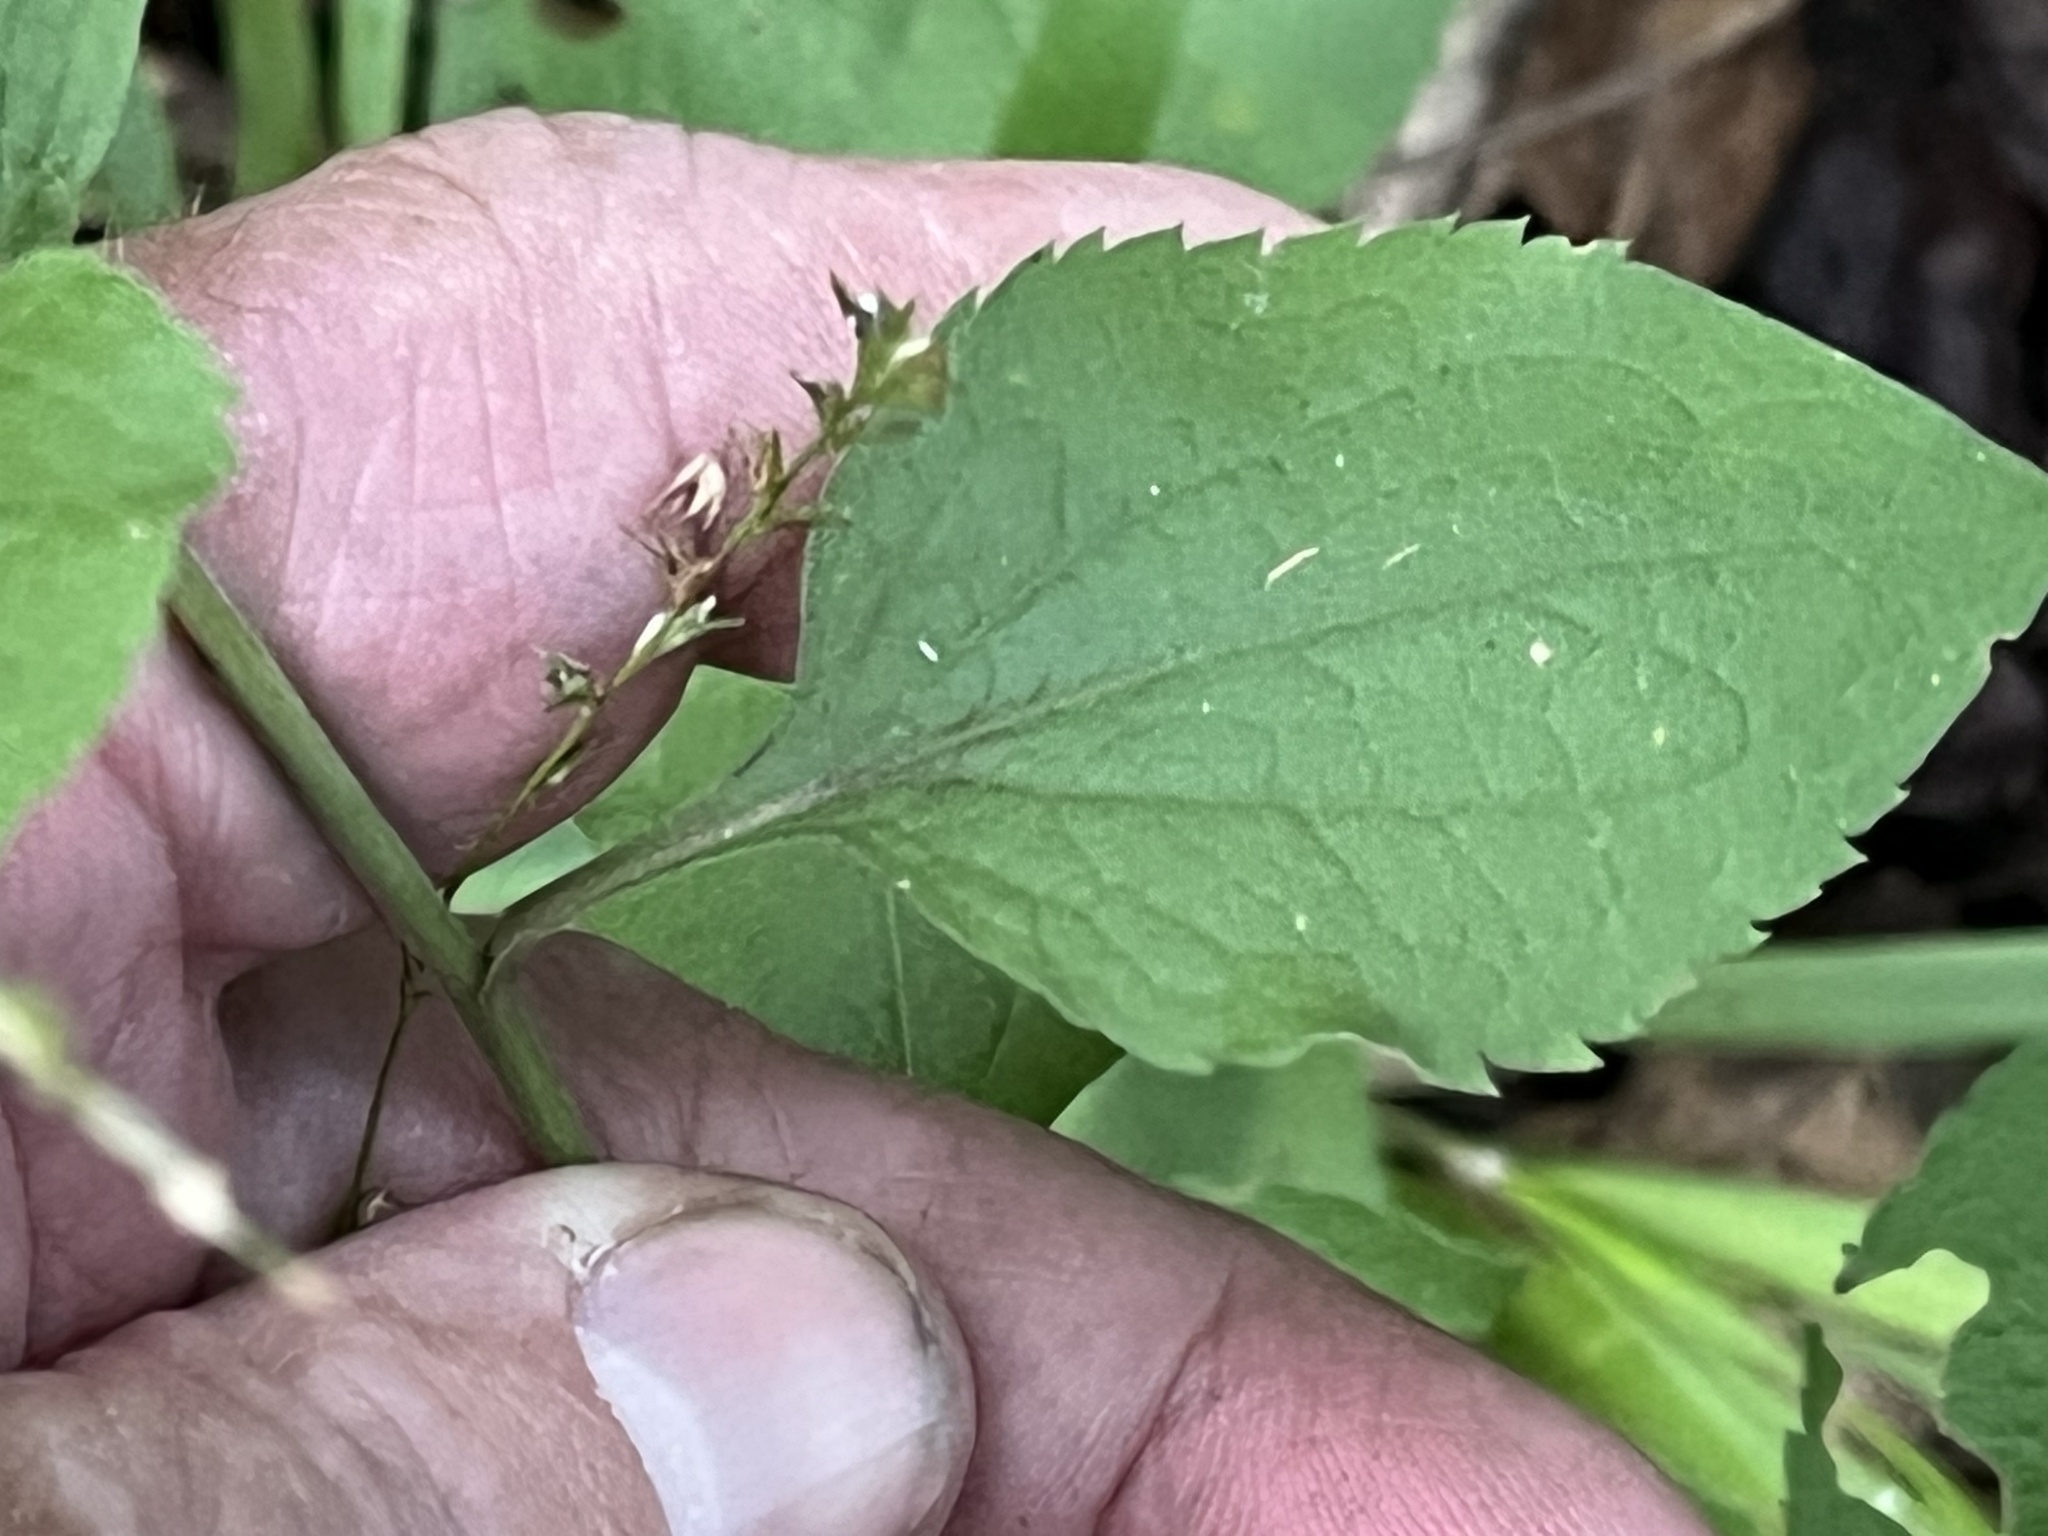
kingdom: Plantae
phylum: Tracheophyta
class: Magnoliopsida
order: Asterales
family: Asteraceae
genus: Solidago
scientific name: Solidago sphacelata
